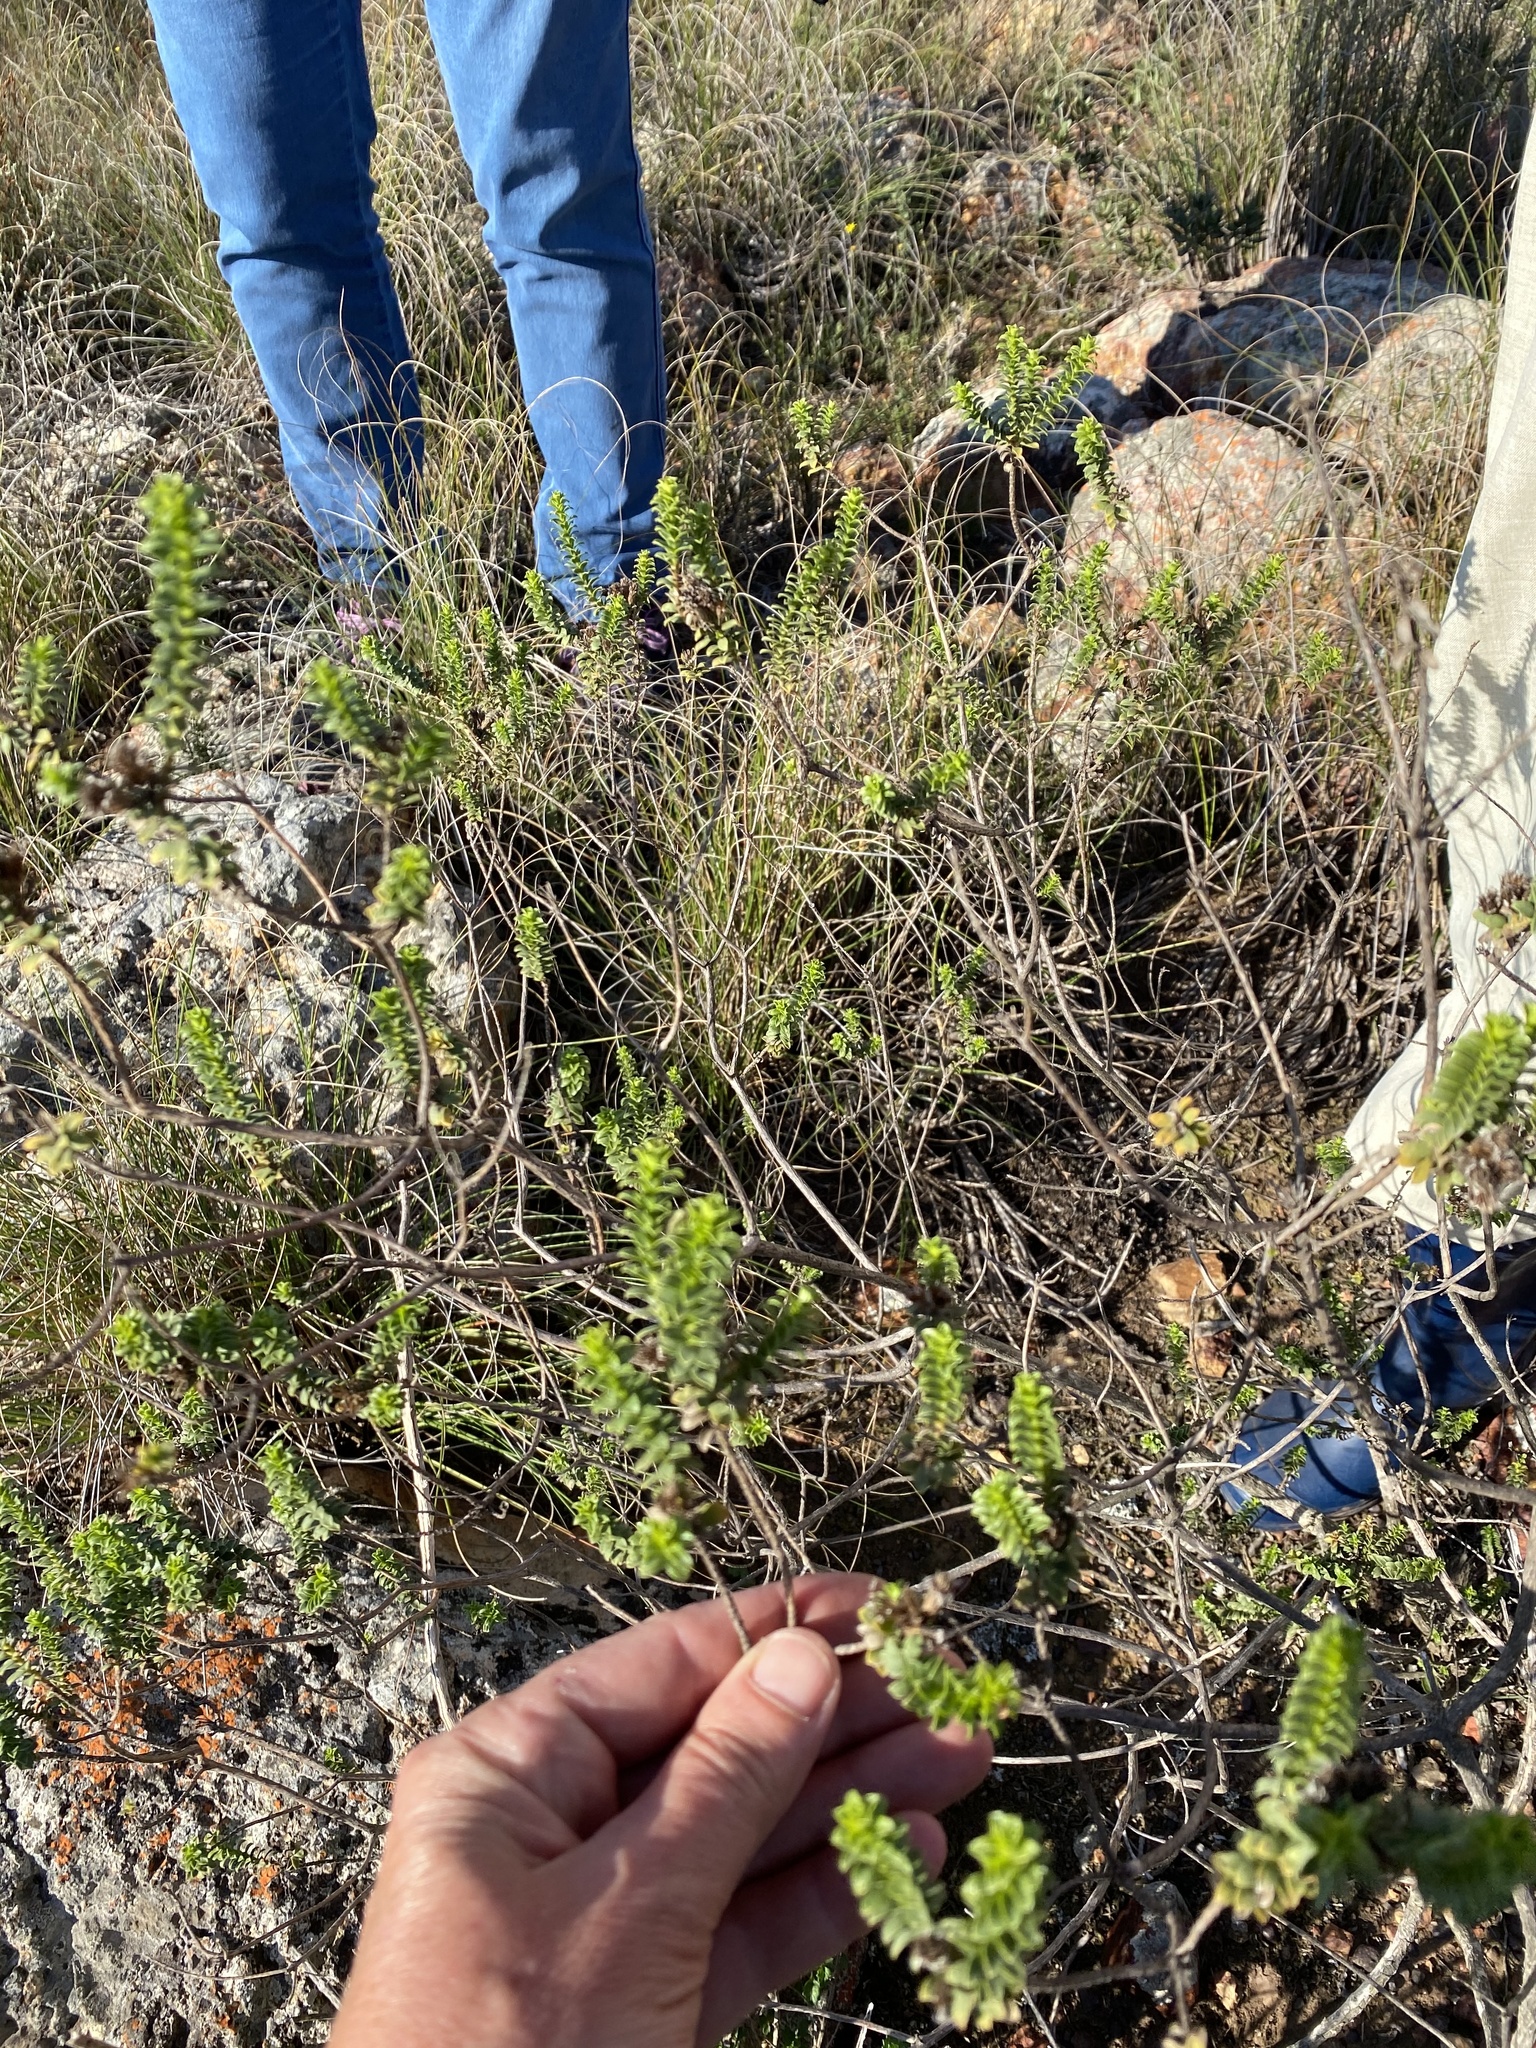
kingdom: Plantae
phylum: Tracheophyta
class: Magnoliopsida
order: Asterales
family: Asteraceae
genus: Oedera
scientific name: Oedera squarrosa
